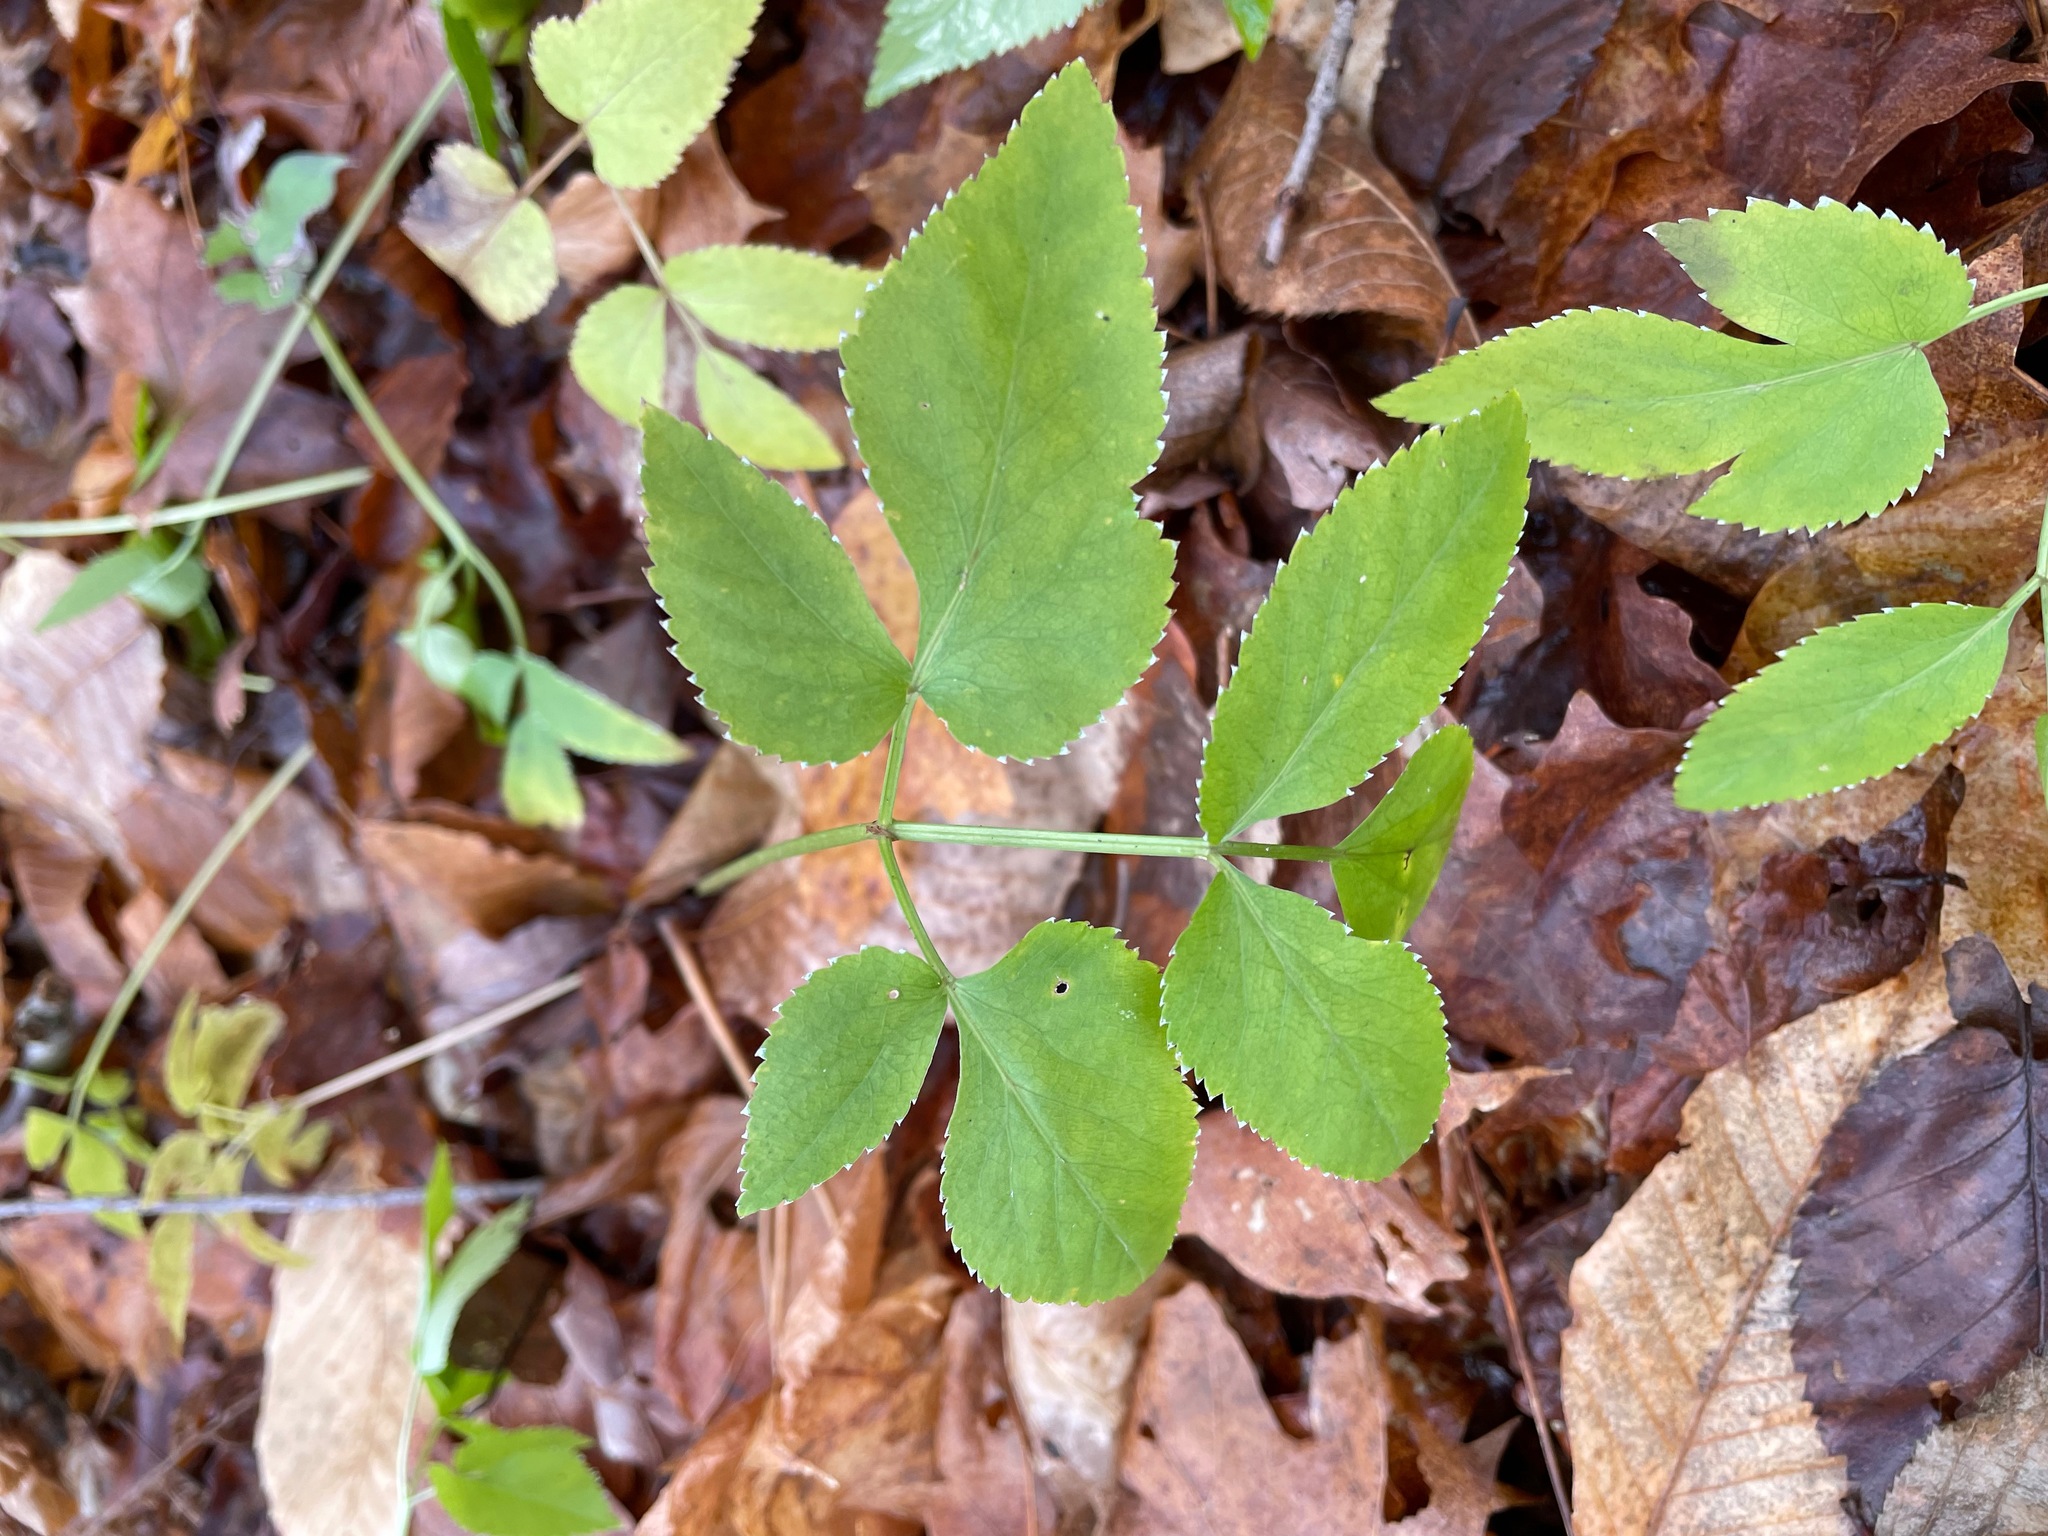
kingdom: Plantae
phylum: Tracheophyta
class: Magnoliopsida
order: Apiales
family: Apiaceae
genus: Zizia
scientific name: Zizia aurea
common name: Golden alexanders
